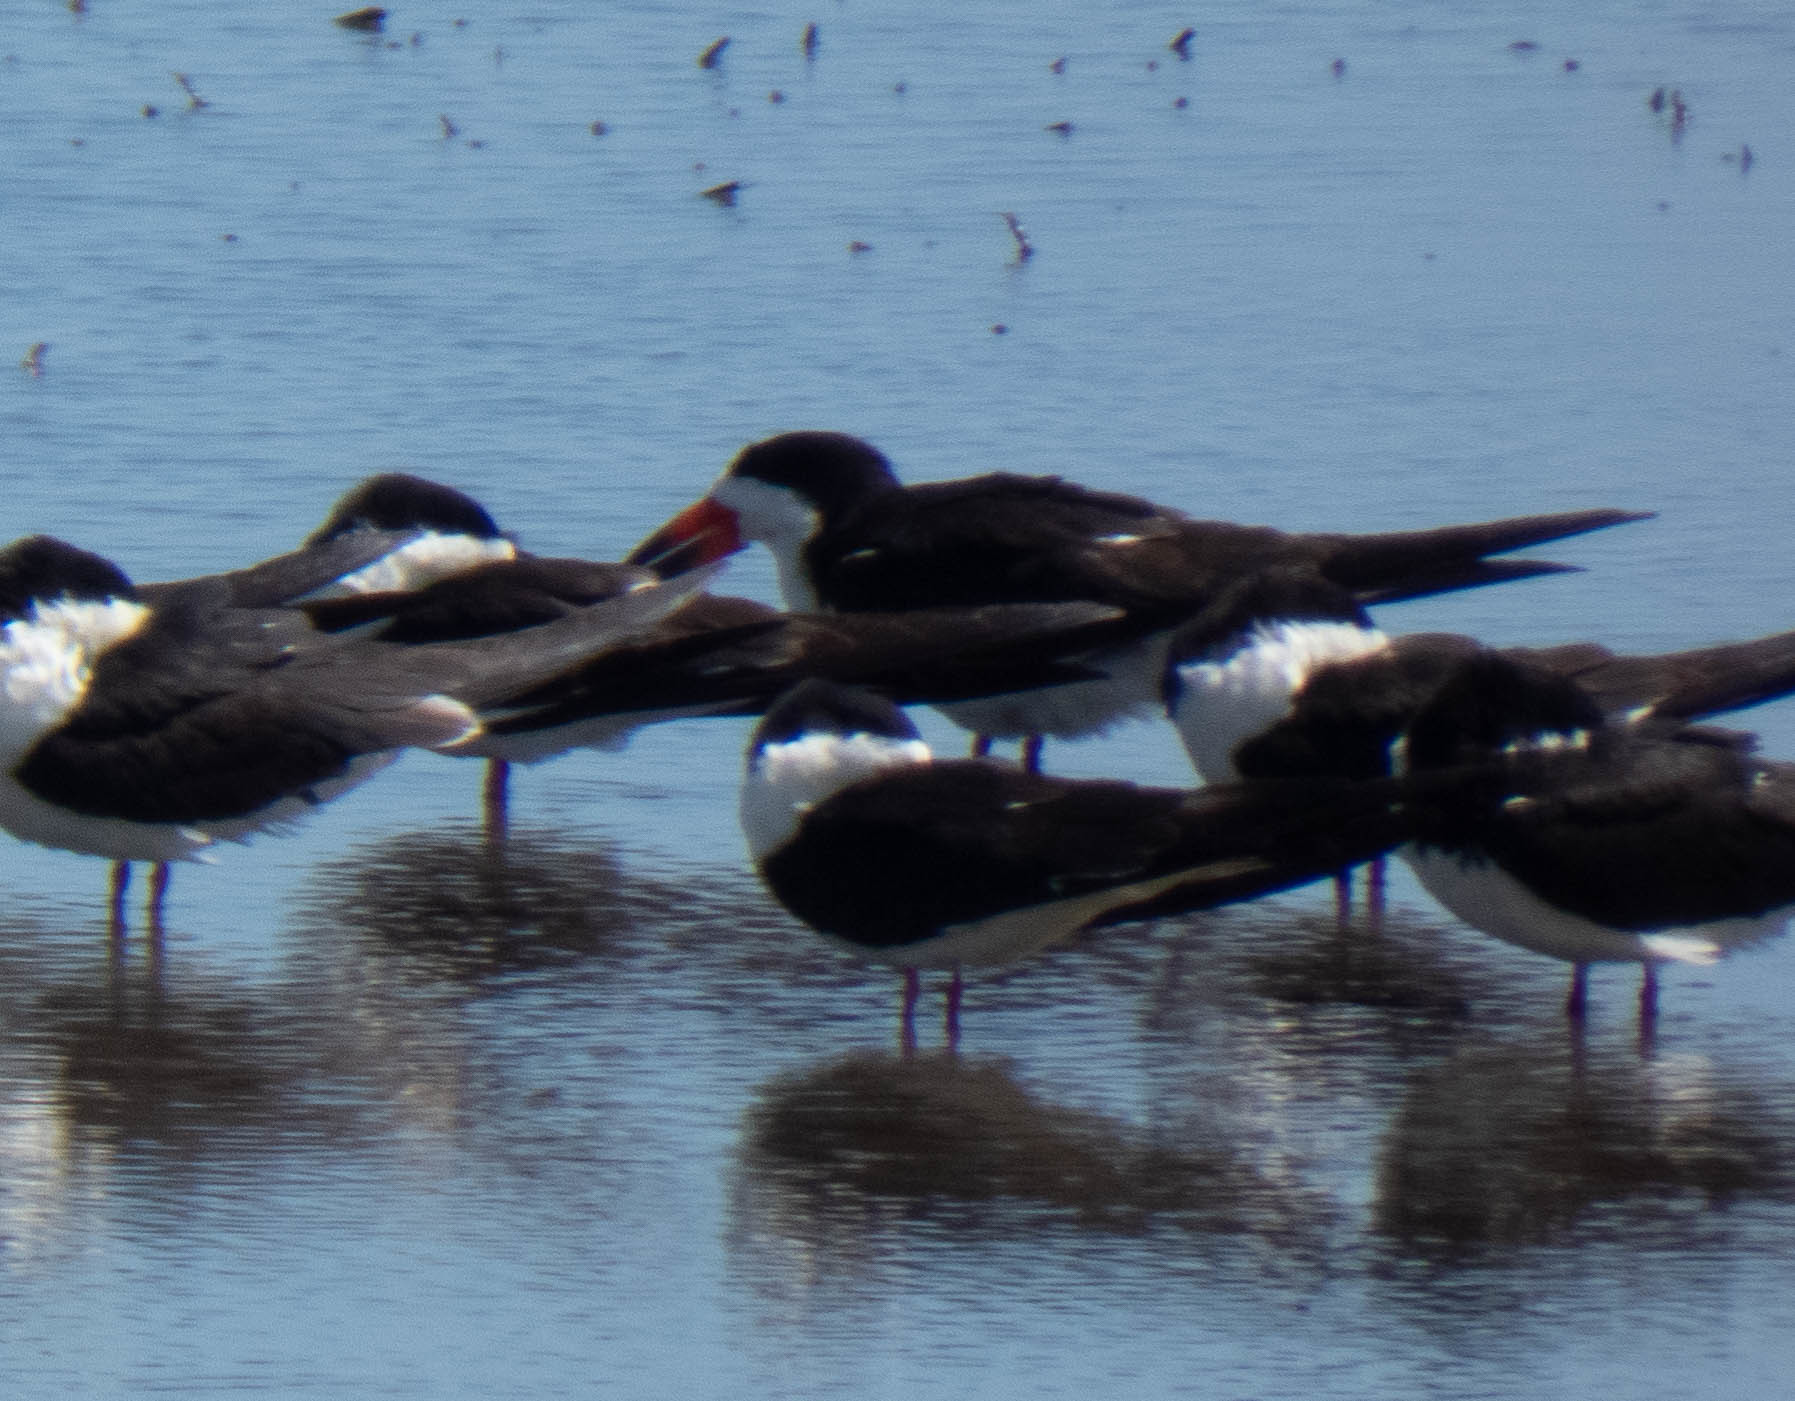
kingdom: Animalia
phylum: Chordata
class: Aves
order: Charadriiformes
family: Laridae
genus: Rynchops
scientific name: Rynchops niger
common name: Black skimmer
